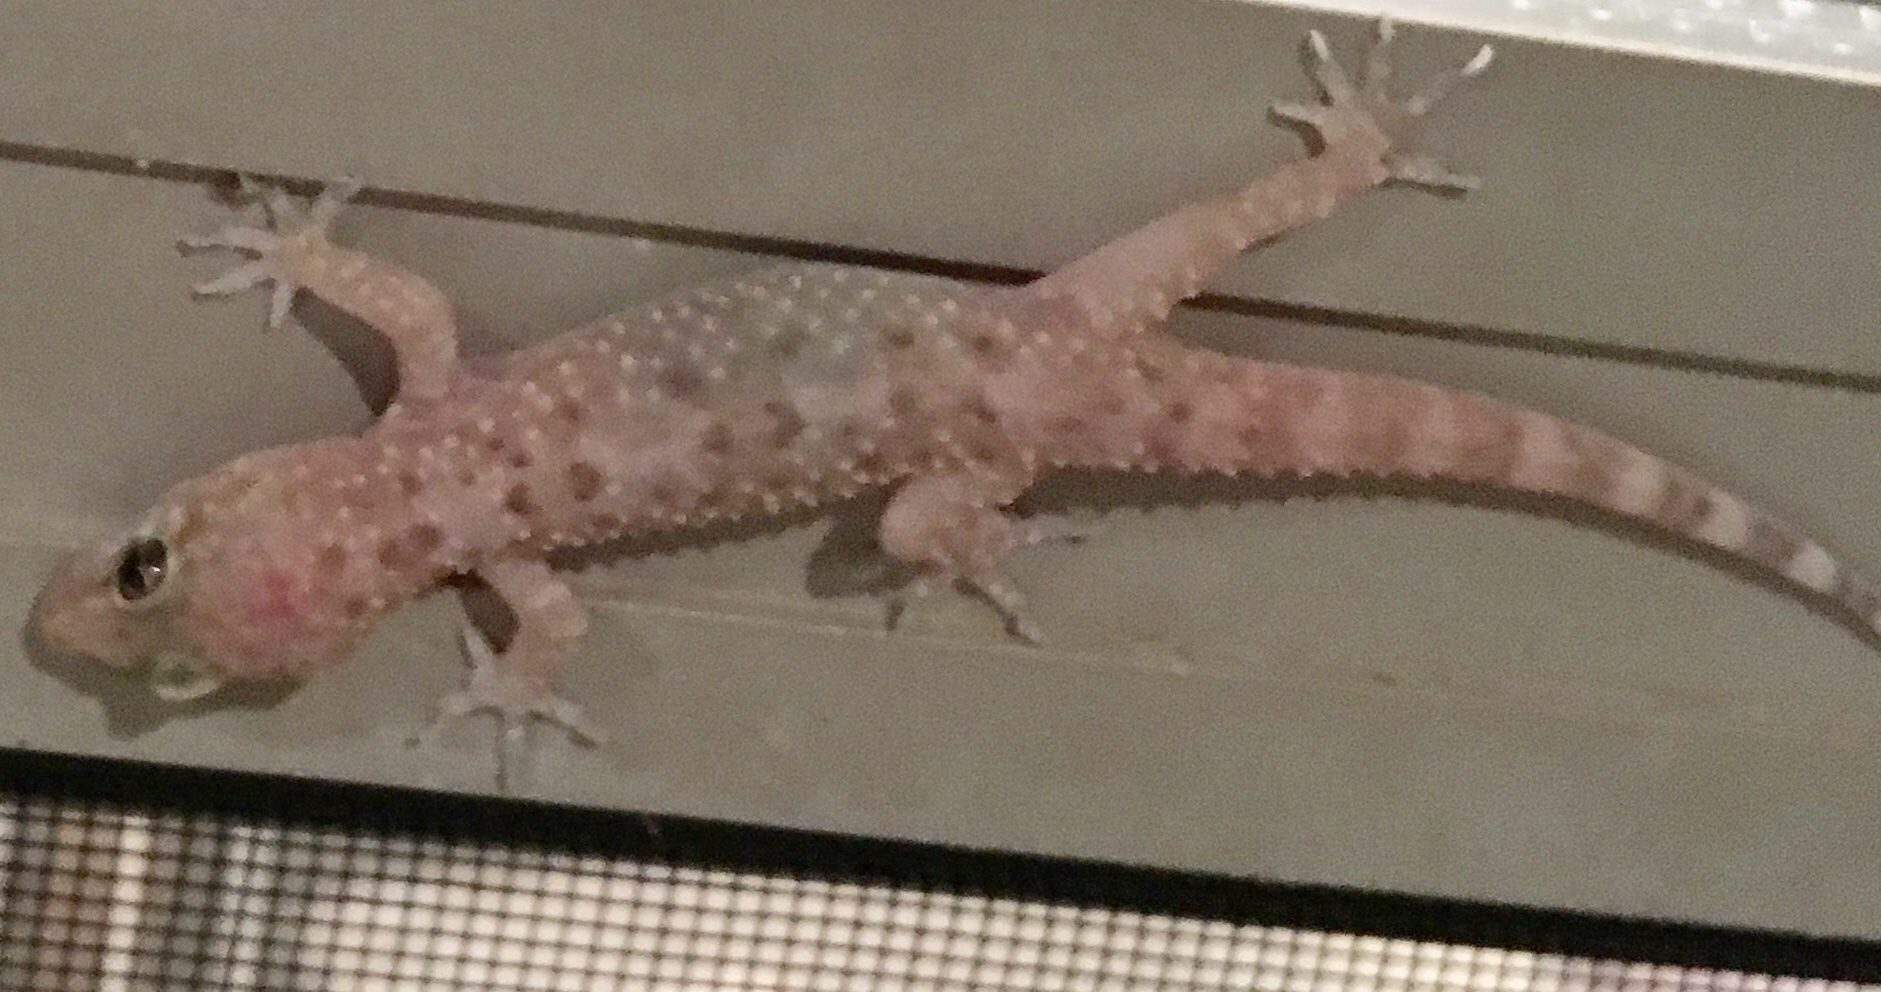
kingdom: Animalia
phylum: Chordata
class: Squamata
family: Gekkonidae
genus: Hemidactylus
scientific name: Hemidactylus turcicus
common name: Turkish gecko
